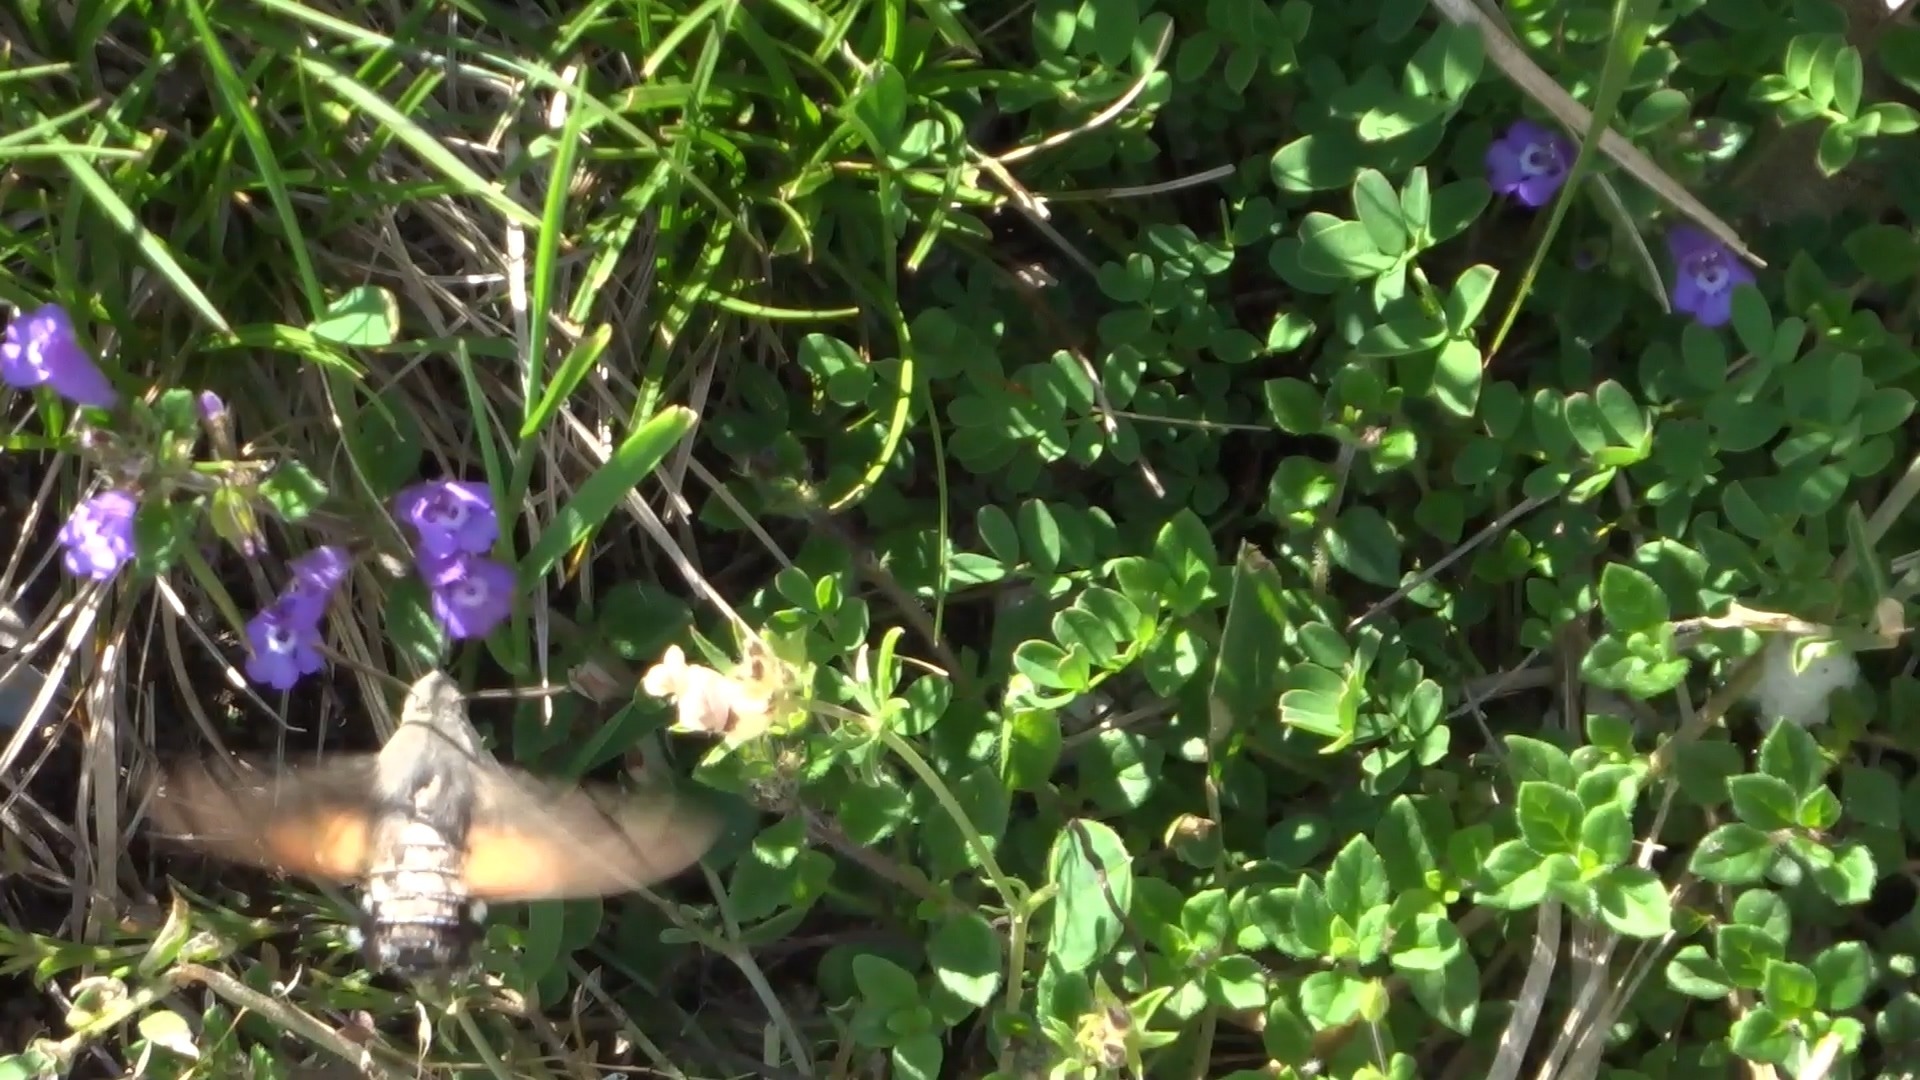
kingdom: Animalia
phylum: Arthropoda
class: Insecta
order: Lepidoptera
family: Sphingidae
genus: Macroglossum
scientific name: Macroglossum stellatarum
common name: Humming-bird hawk-moth
